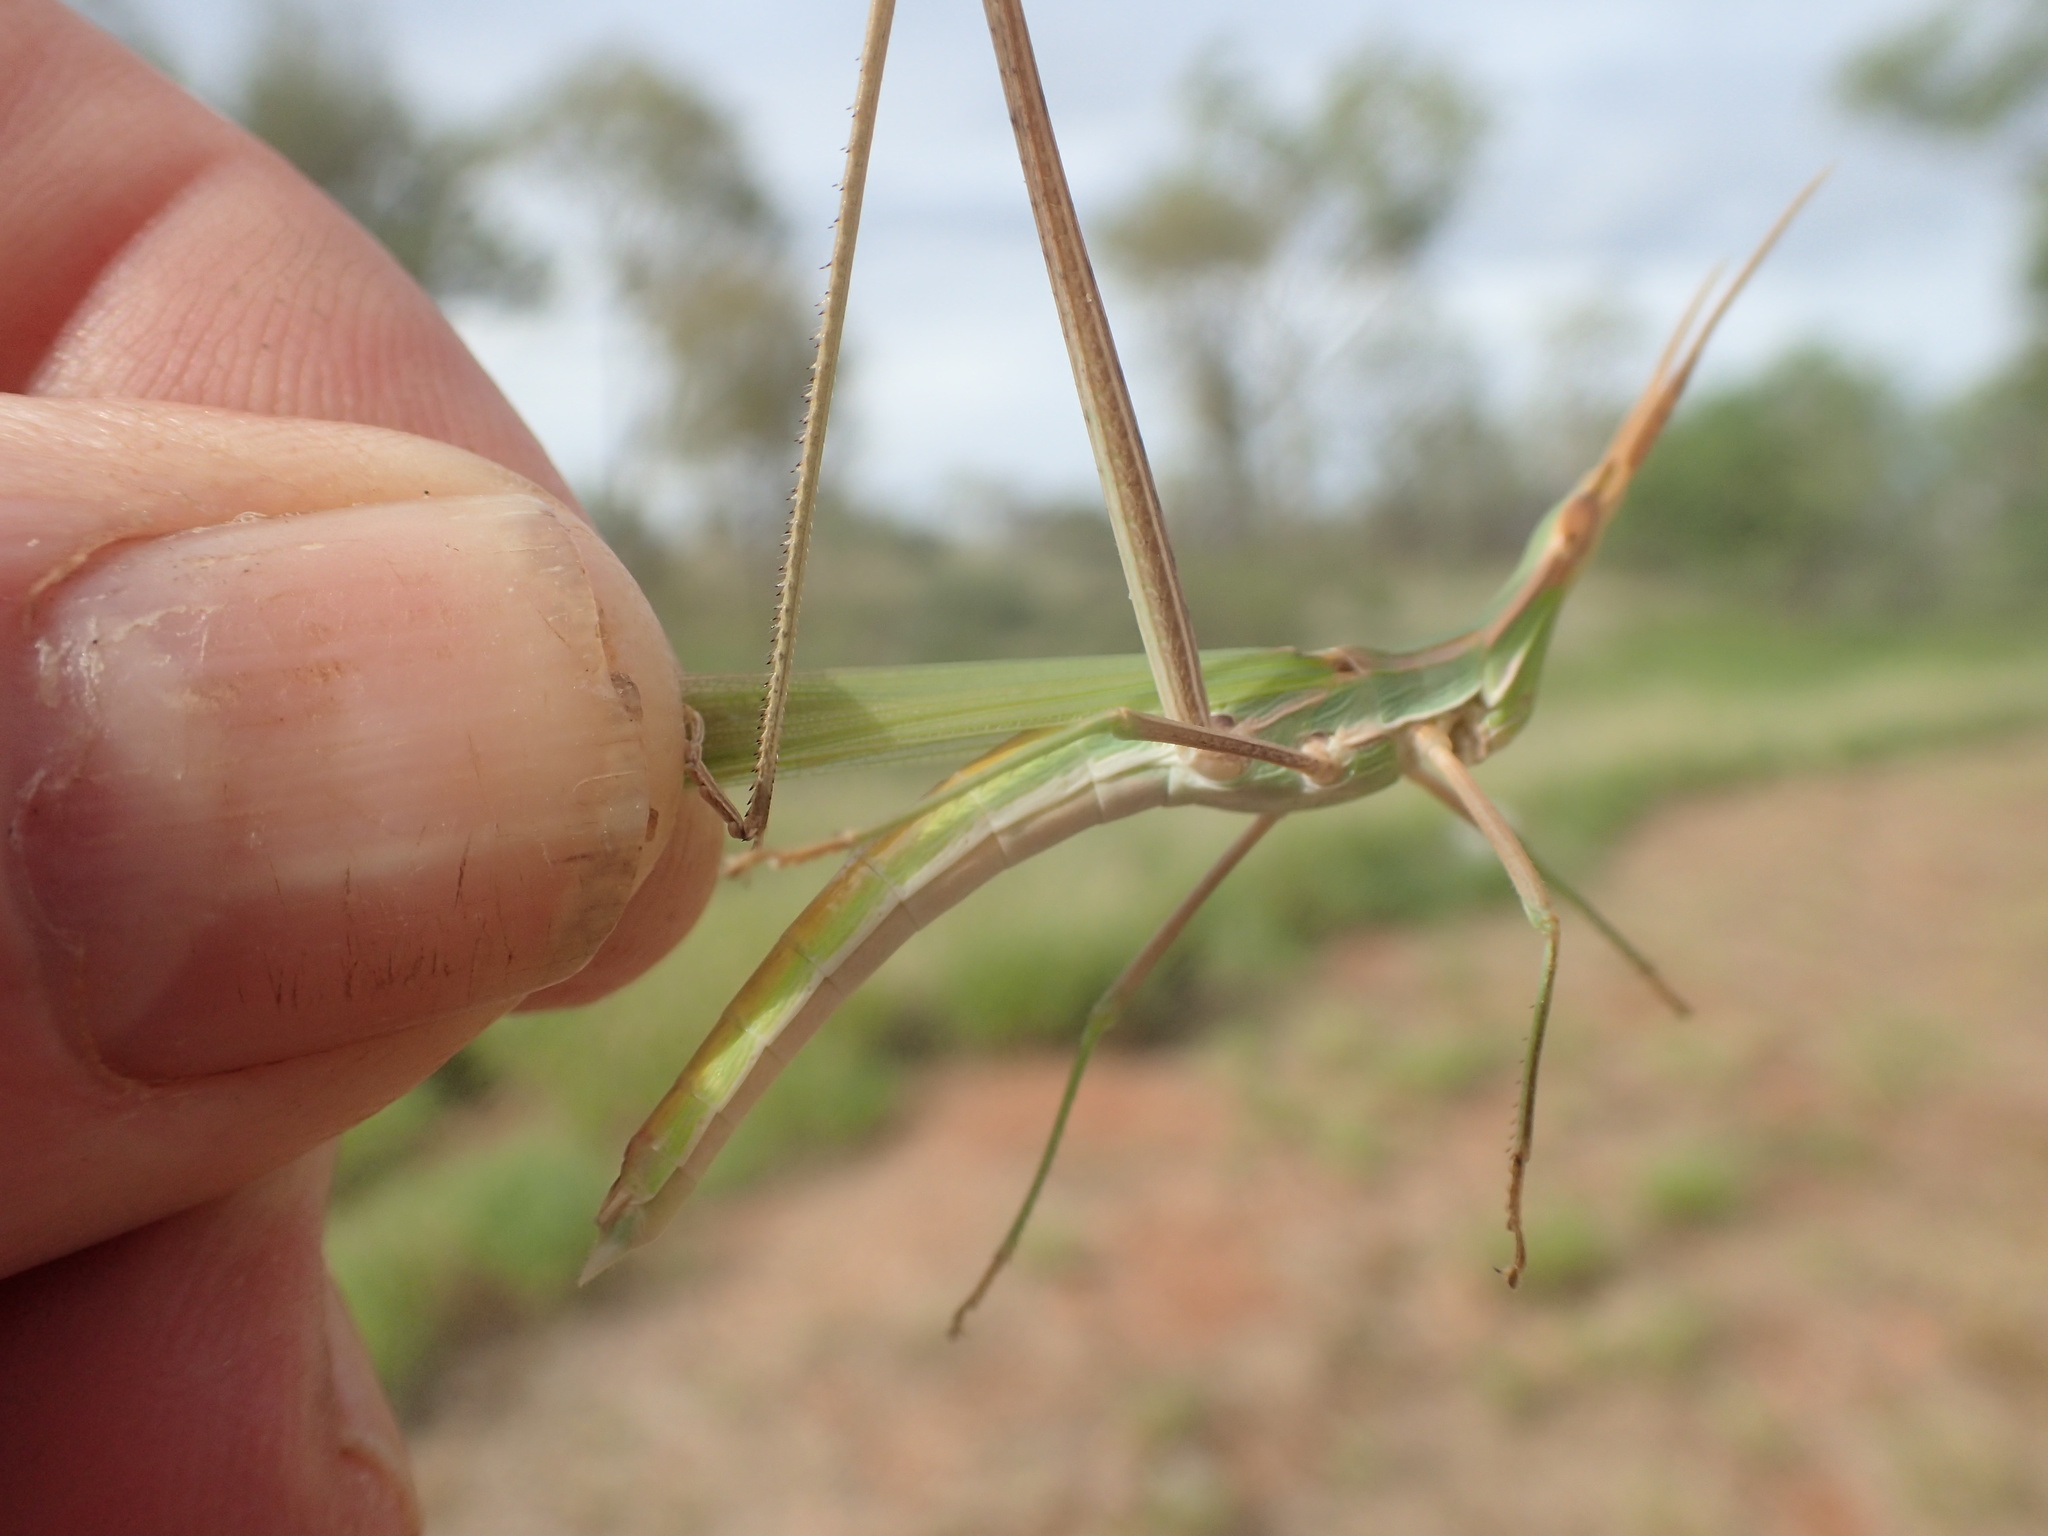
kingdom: Animalia
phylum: Arthropoda
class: Insecta
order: Orthoptera
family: Acrididae
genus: Acrida
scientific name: Acrida conica
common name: Giant green slantface
